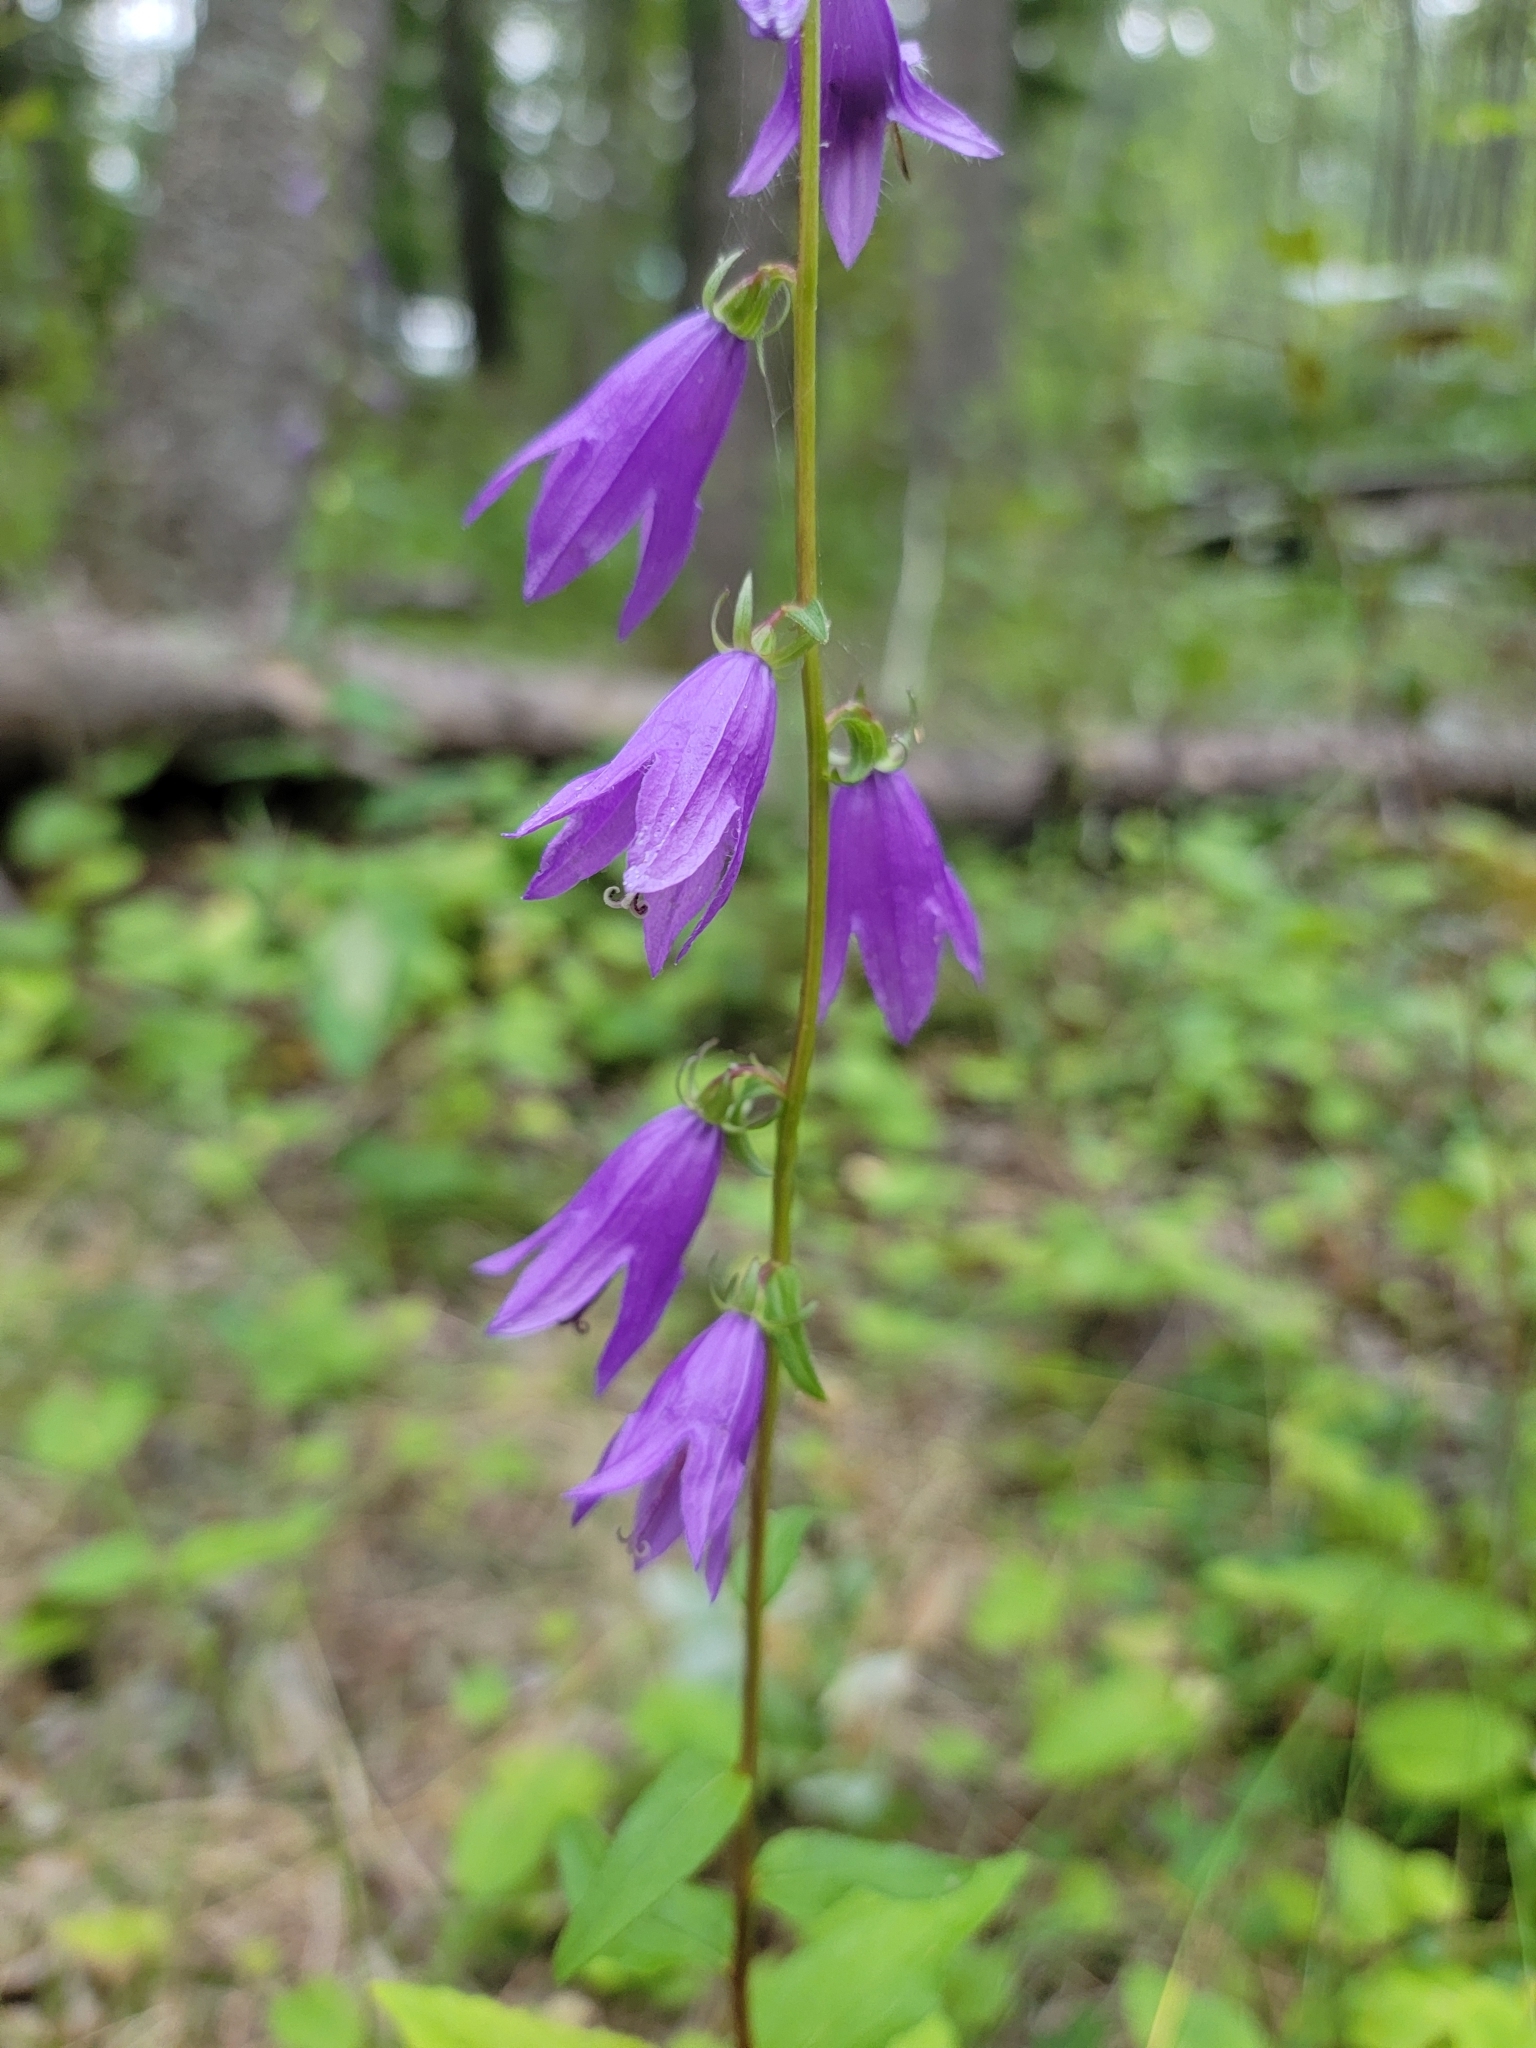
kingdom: Plantae
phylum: Tracheophyta
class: Magnoliopsida
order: Asterales
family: Campanulaceae
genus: Campanula
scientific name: Campanula rapunculoides
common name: Creeping bellflower
